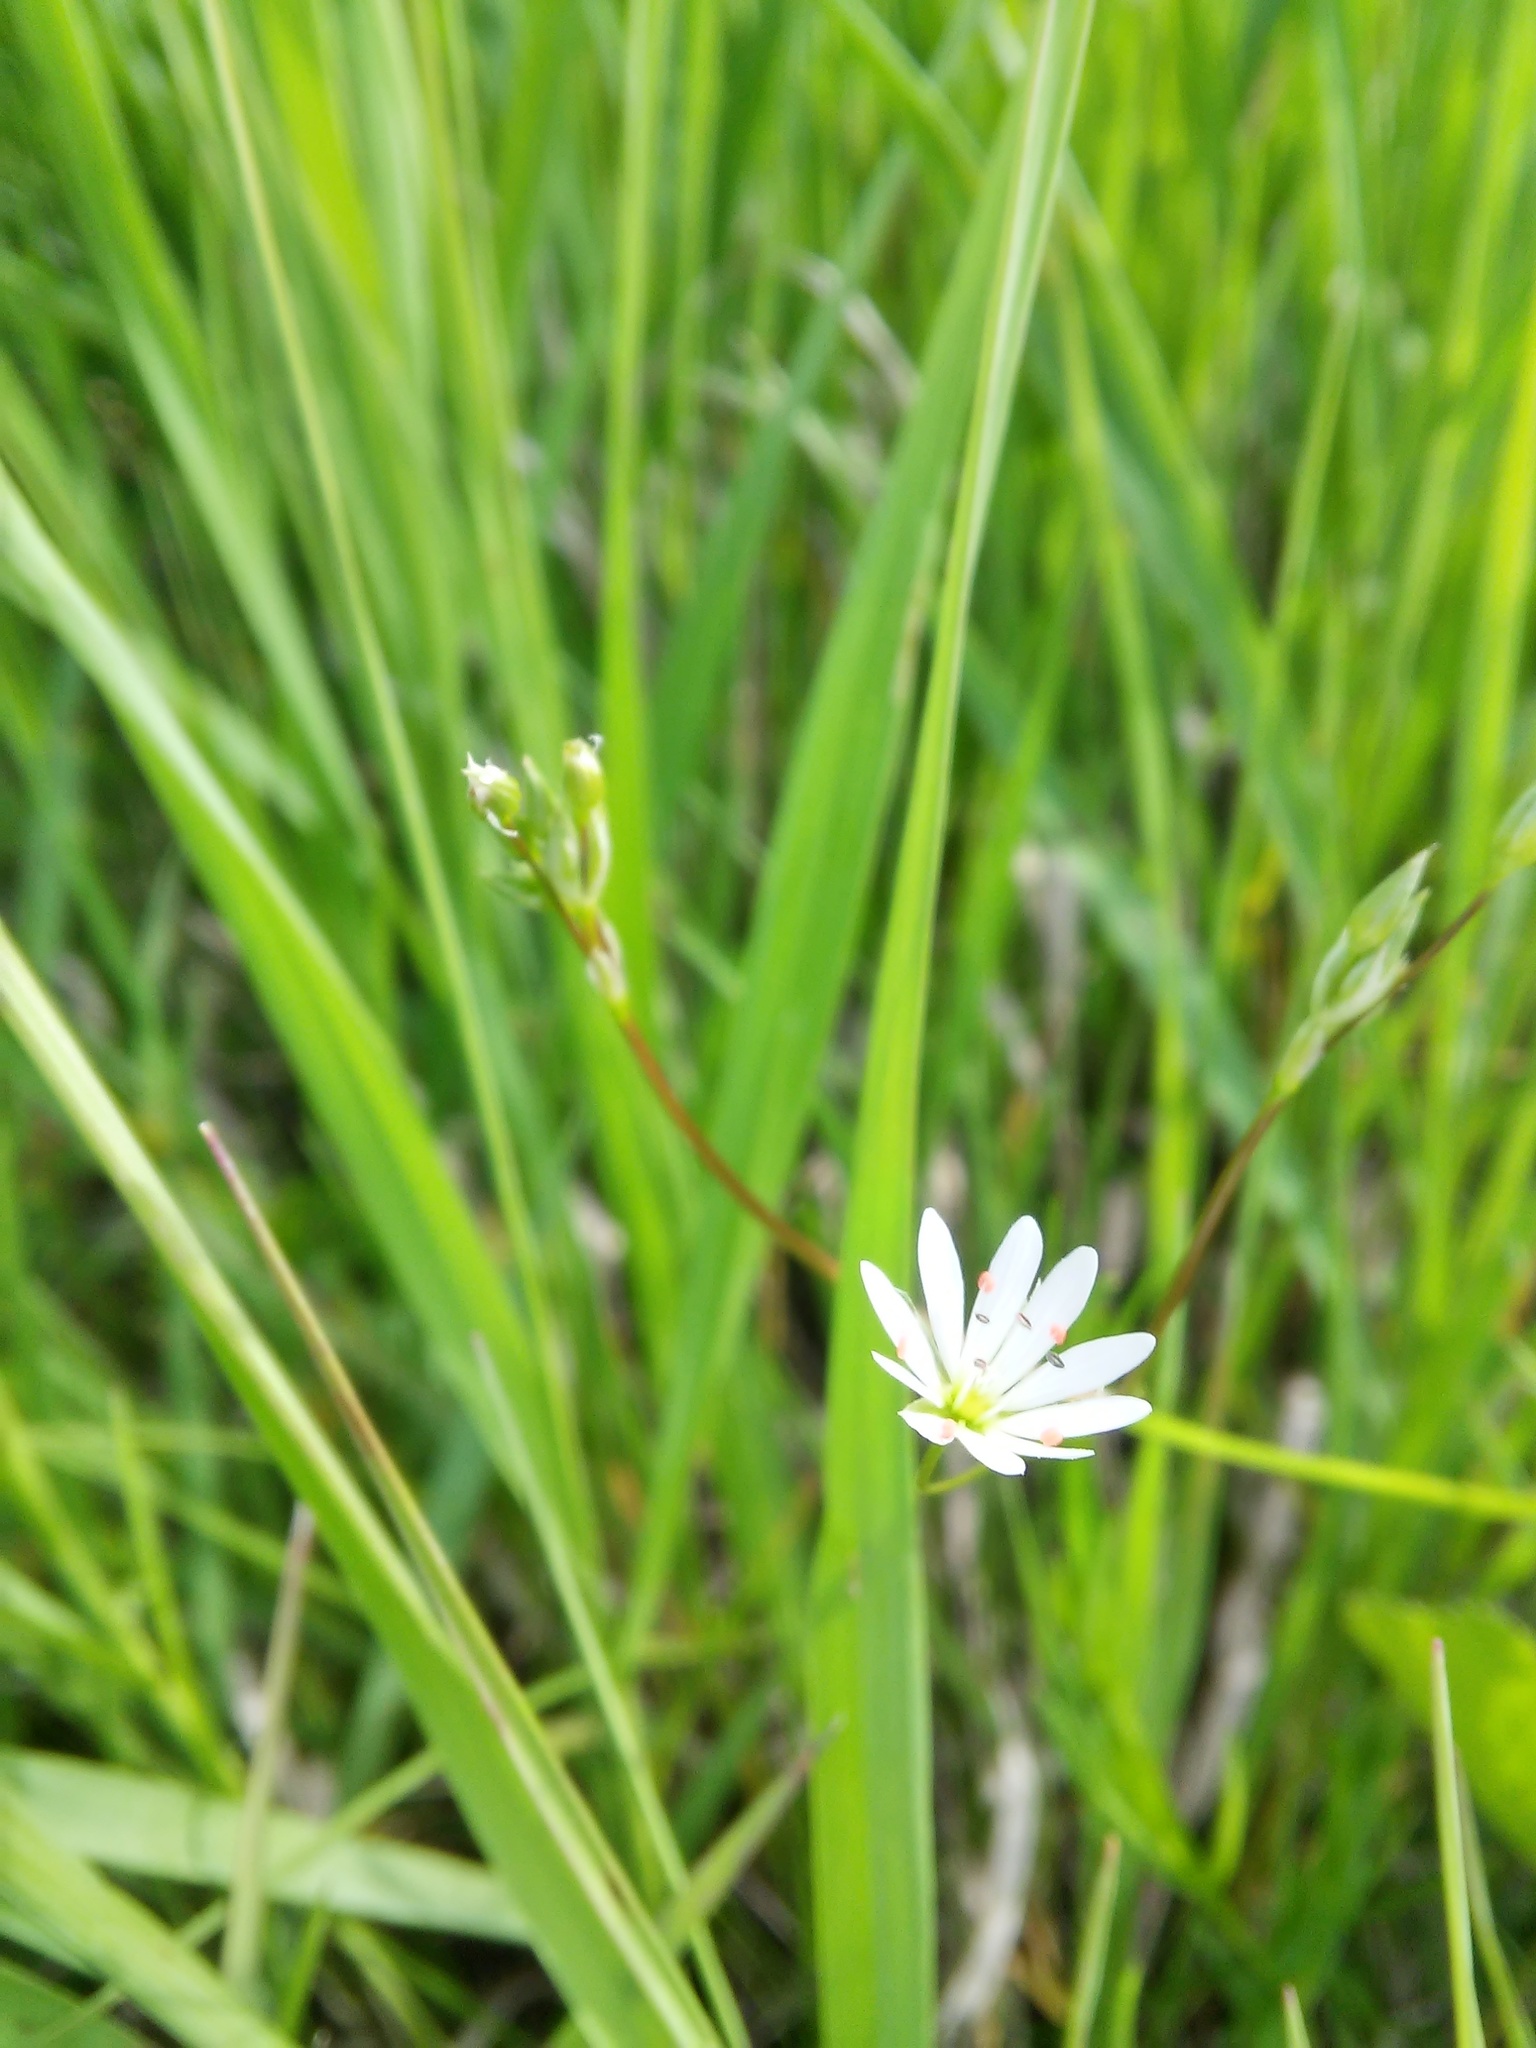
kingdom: Plantae
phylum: Tracheophyta
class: Magnoliopsida
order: Caryophyllales
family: Caryophyllaceae
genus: Stellaria
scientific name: Stellaria graminea
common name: Grass-like starwort
